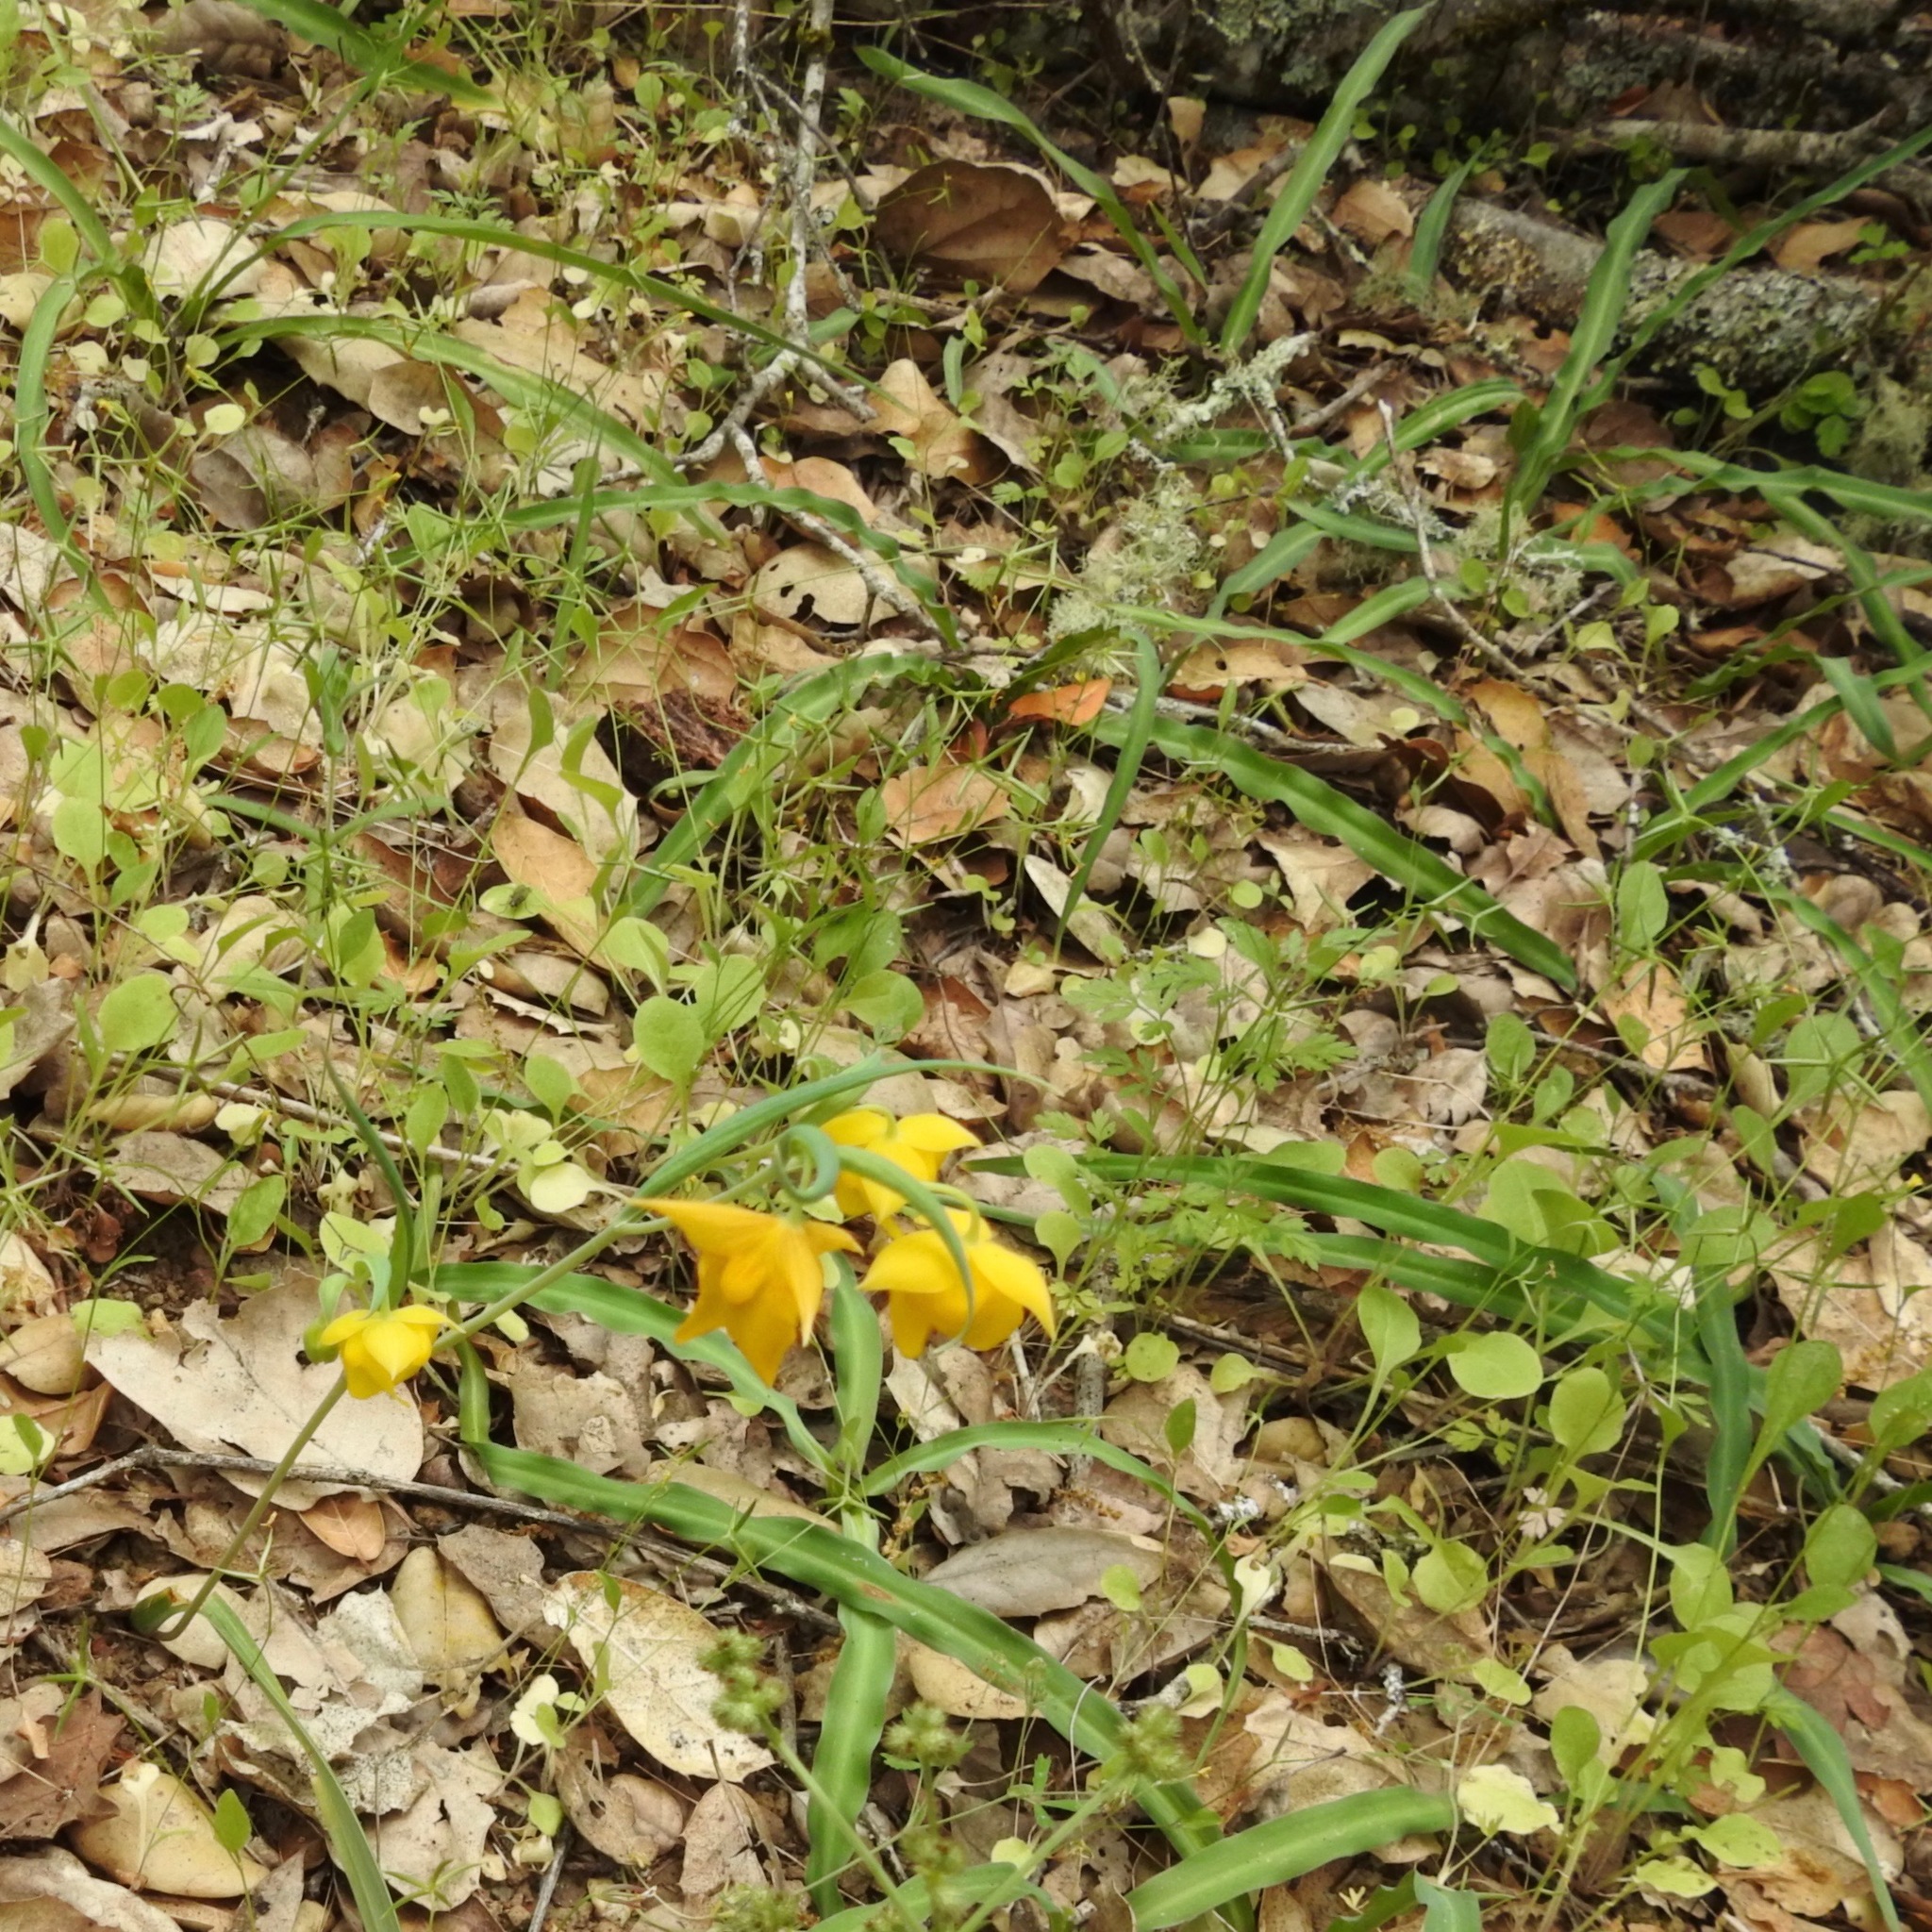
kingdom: Plantae
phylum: Tracheophyta
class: Liliopsida
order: Liliales
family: Liliaceae
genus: Calochortus
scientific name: Calochortus amabilis
